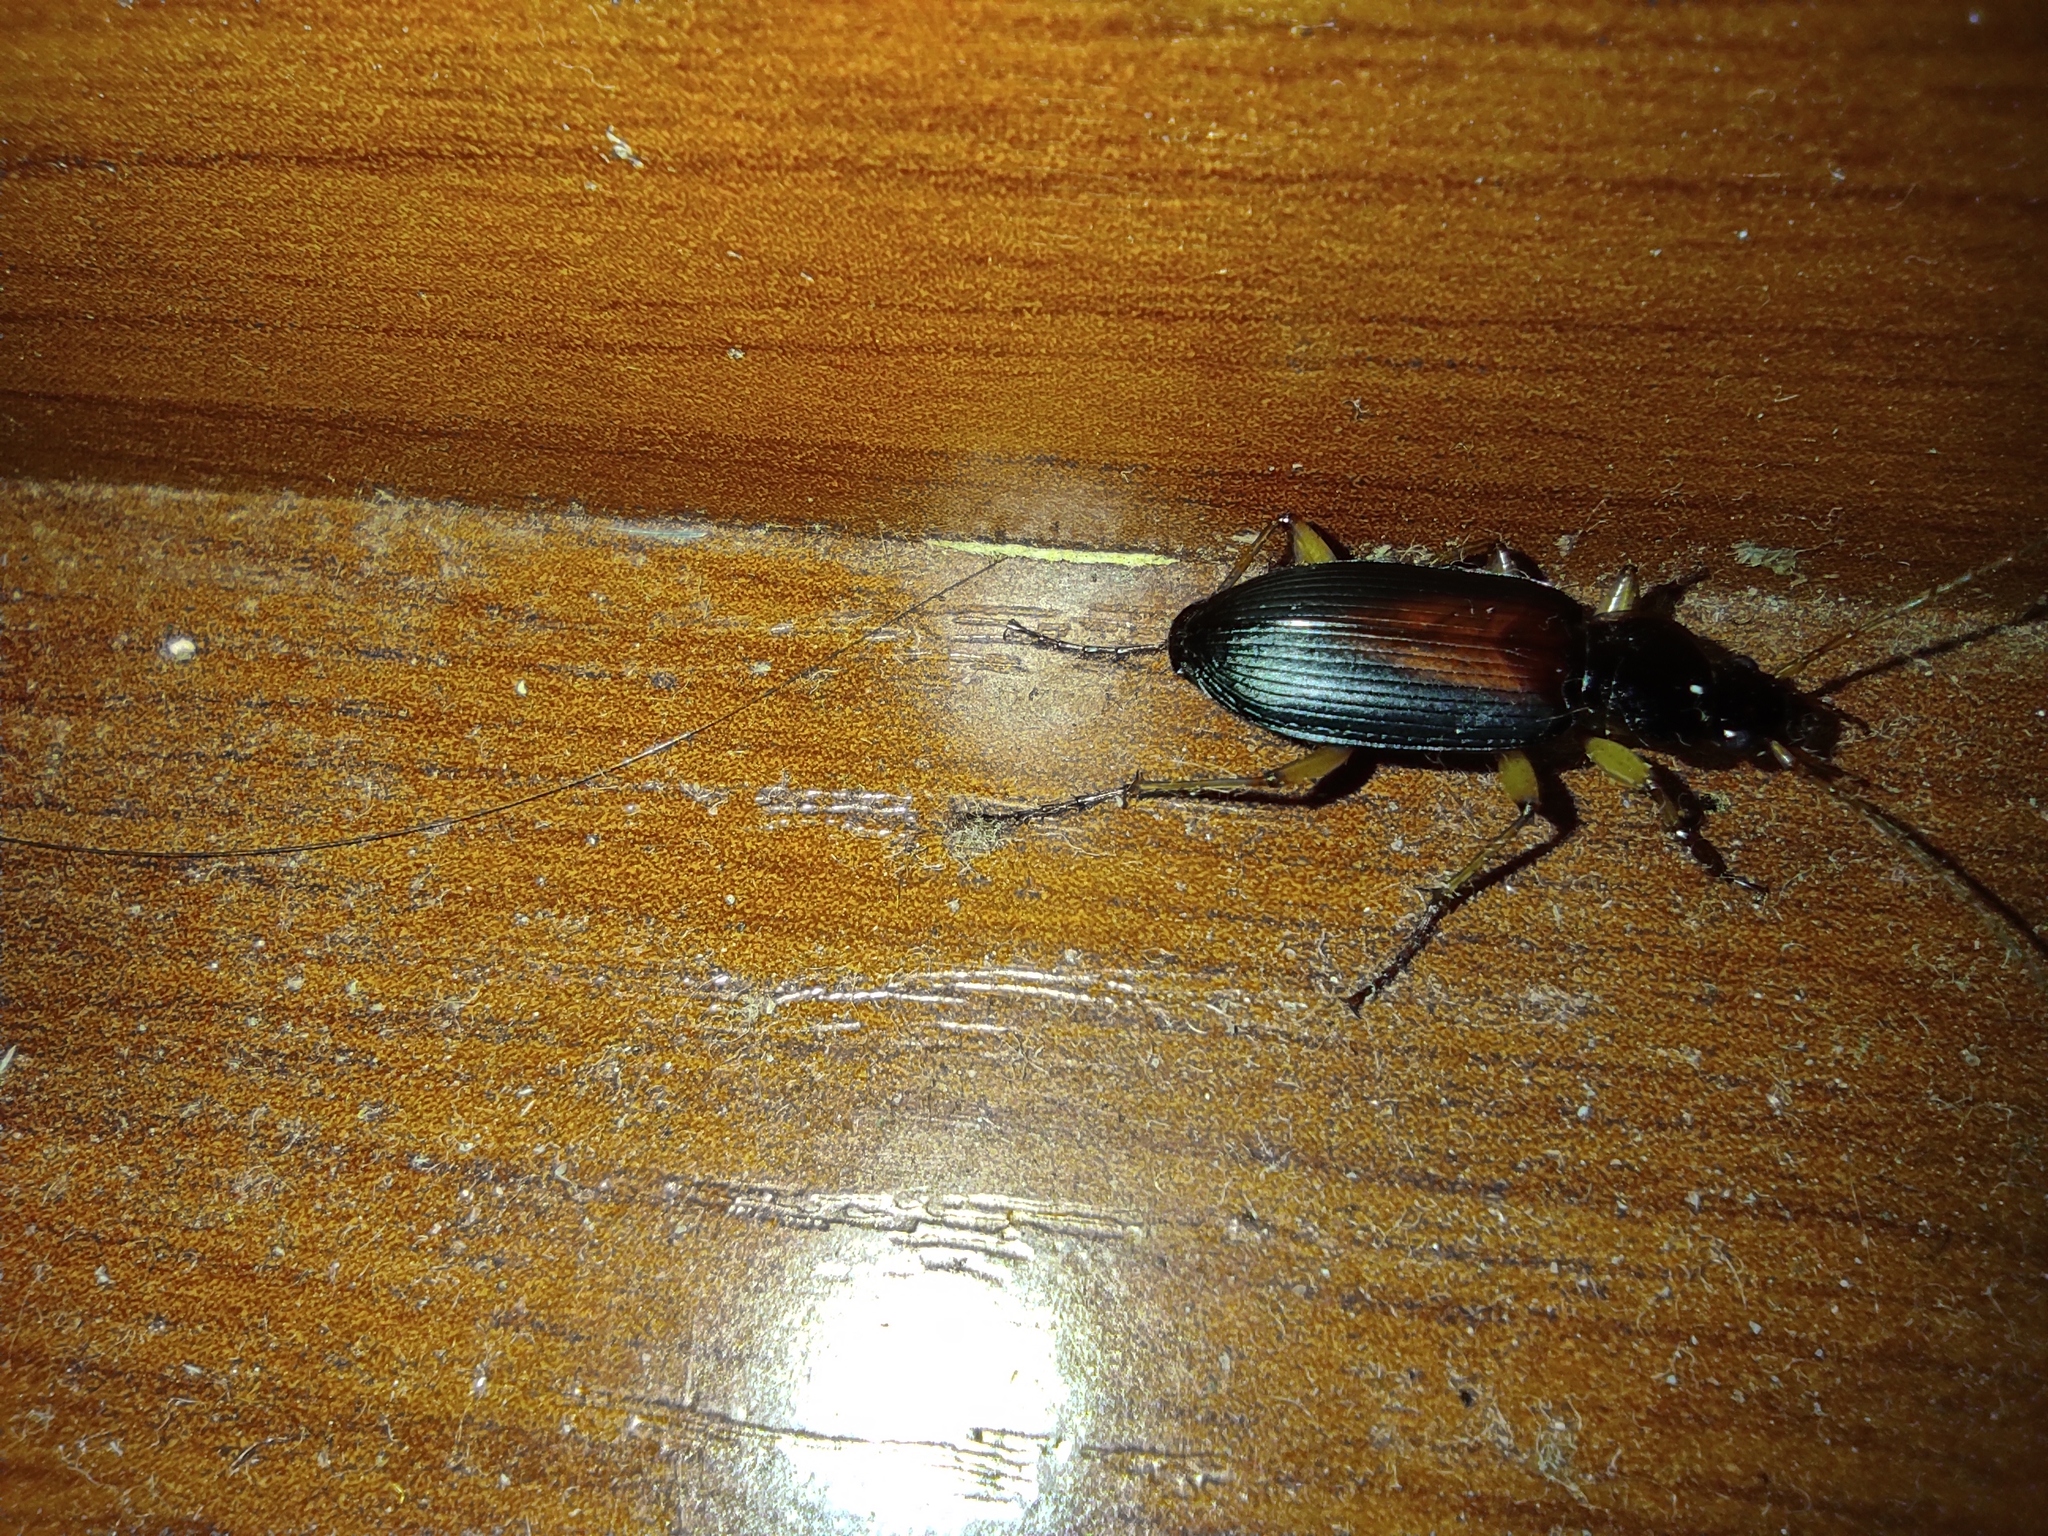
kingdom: Animalia
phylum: Arthropoda
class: Insecta
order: Coleoptera
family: Carabidae
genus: Dolichus
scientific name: Dolichus halensis
